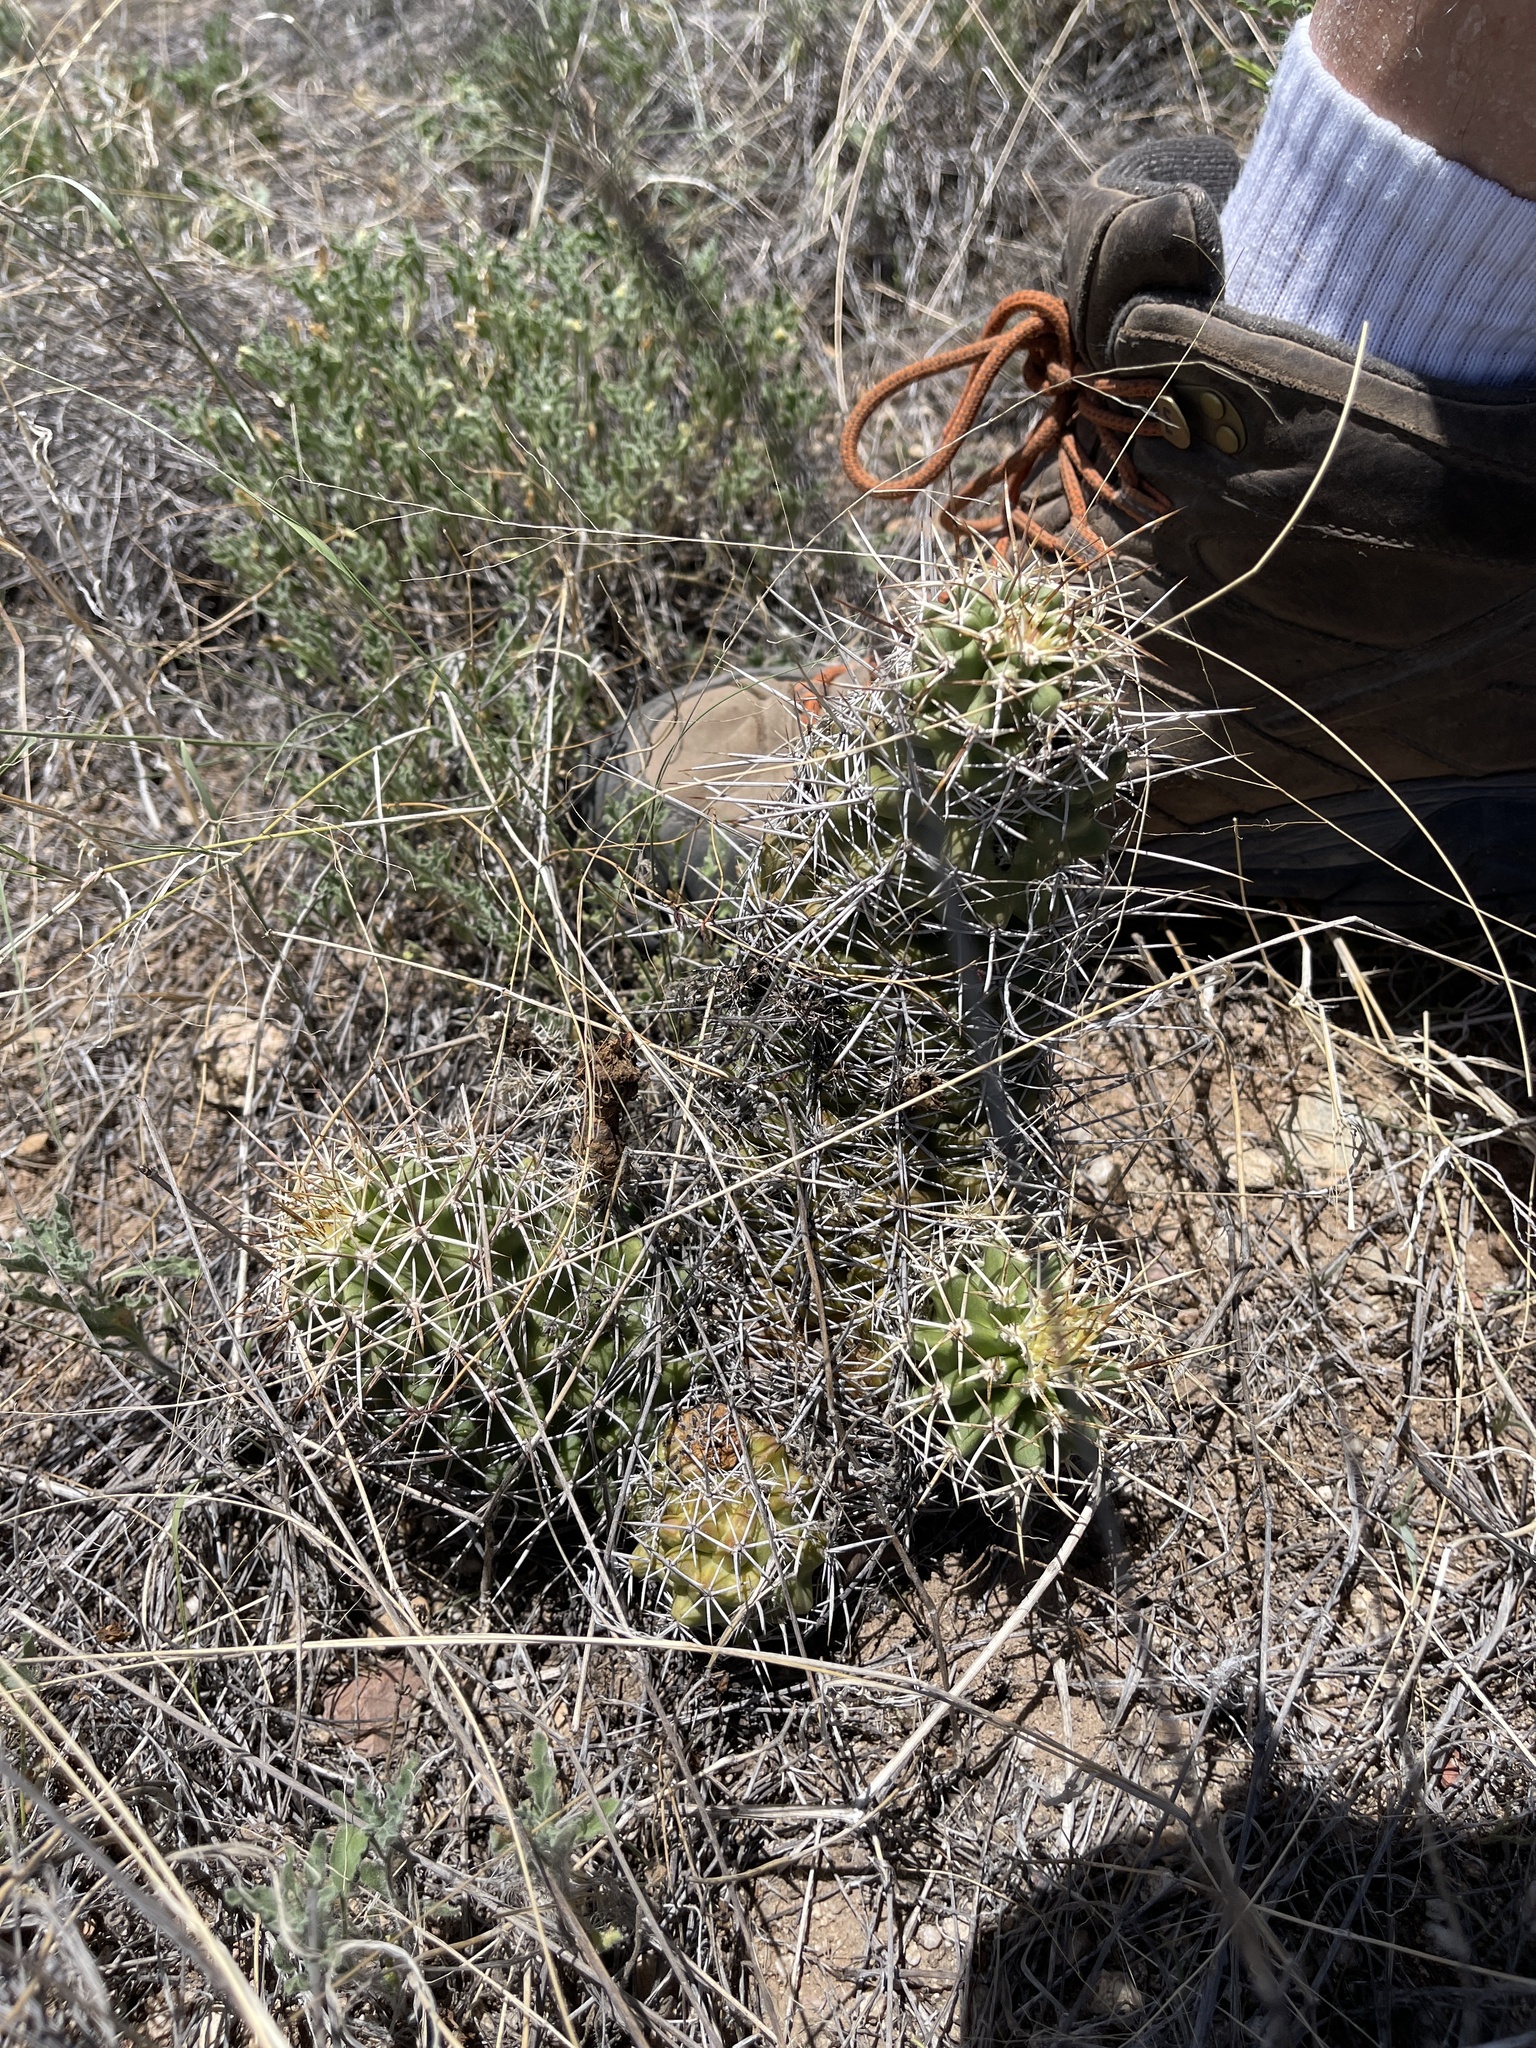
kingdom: Plantae
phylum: Tracheophyta
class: Magnoliopsida
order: Caryophyllales
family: Cactaceae
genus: Echinocereus
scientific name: Echinocereus fendleri
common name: Fendler's hedgehog cactus
